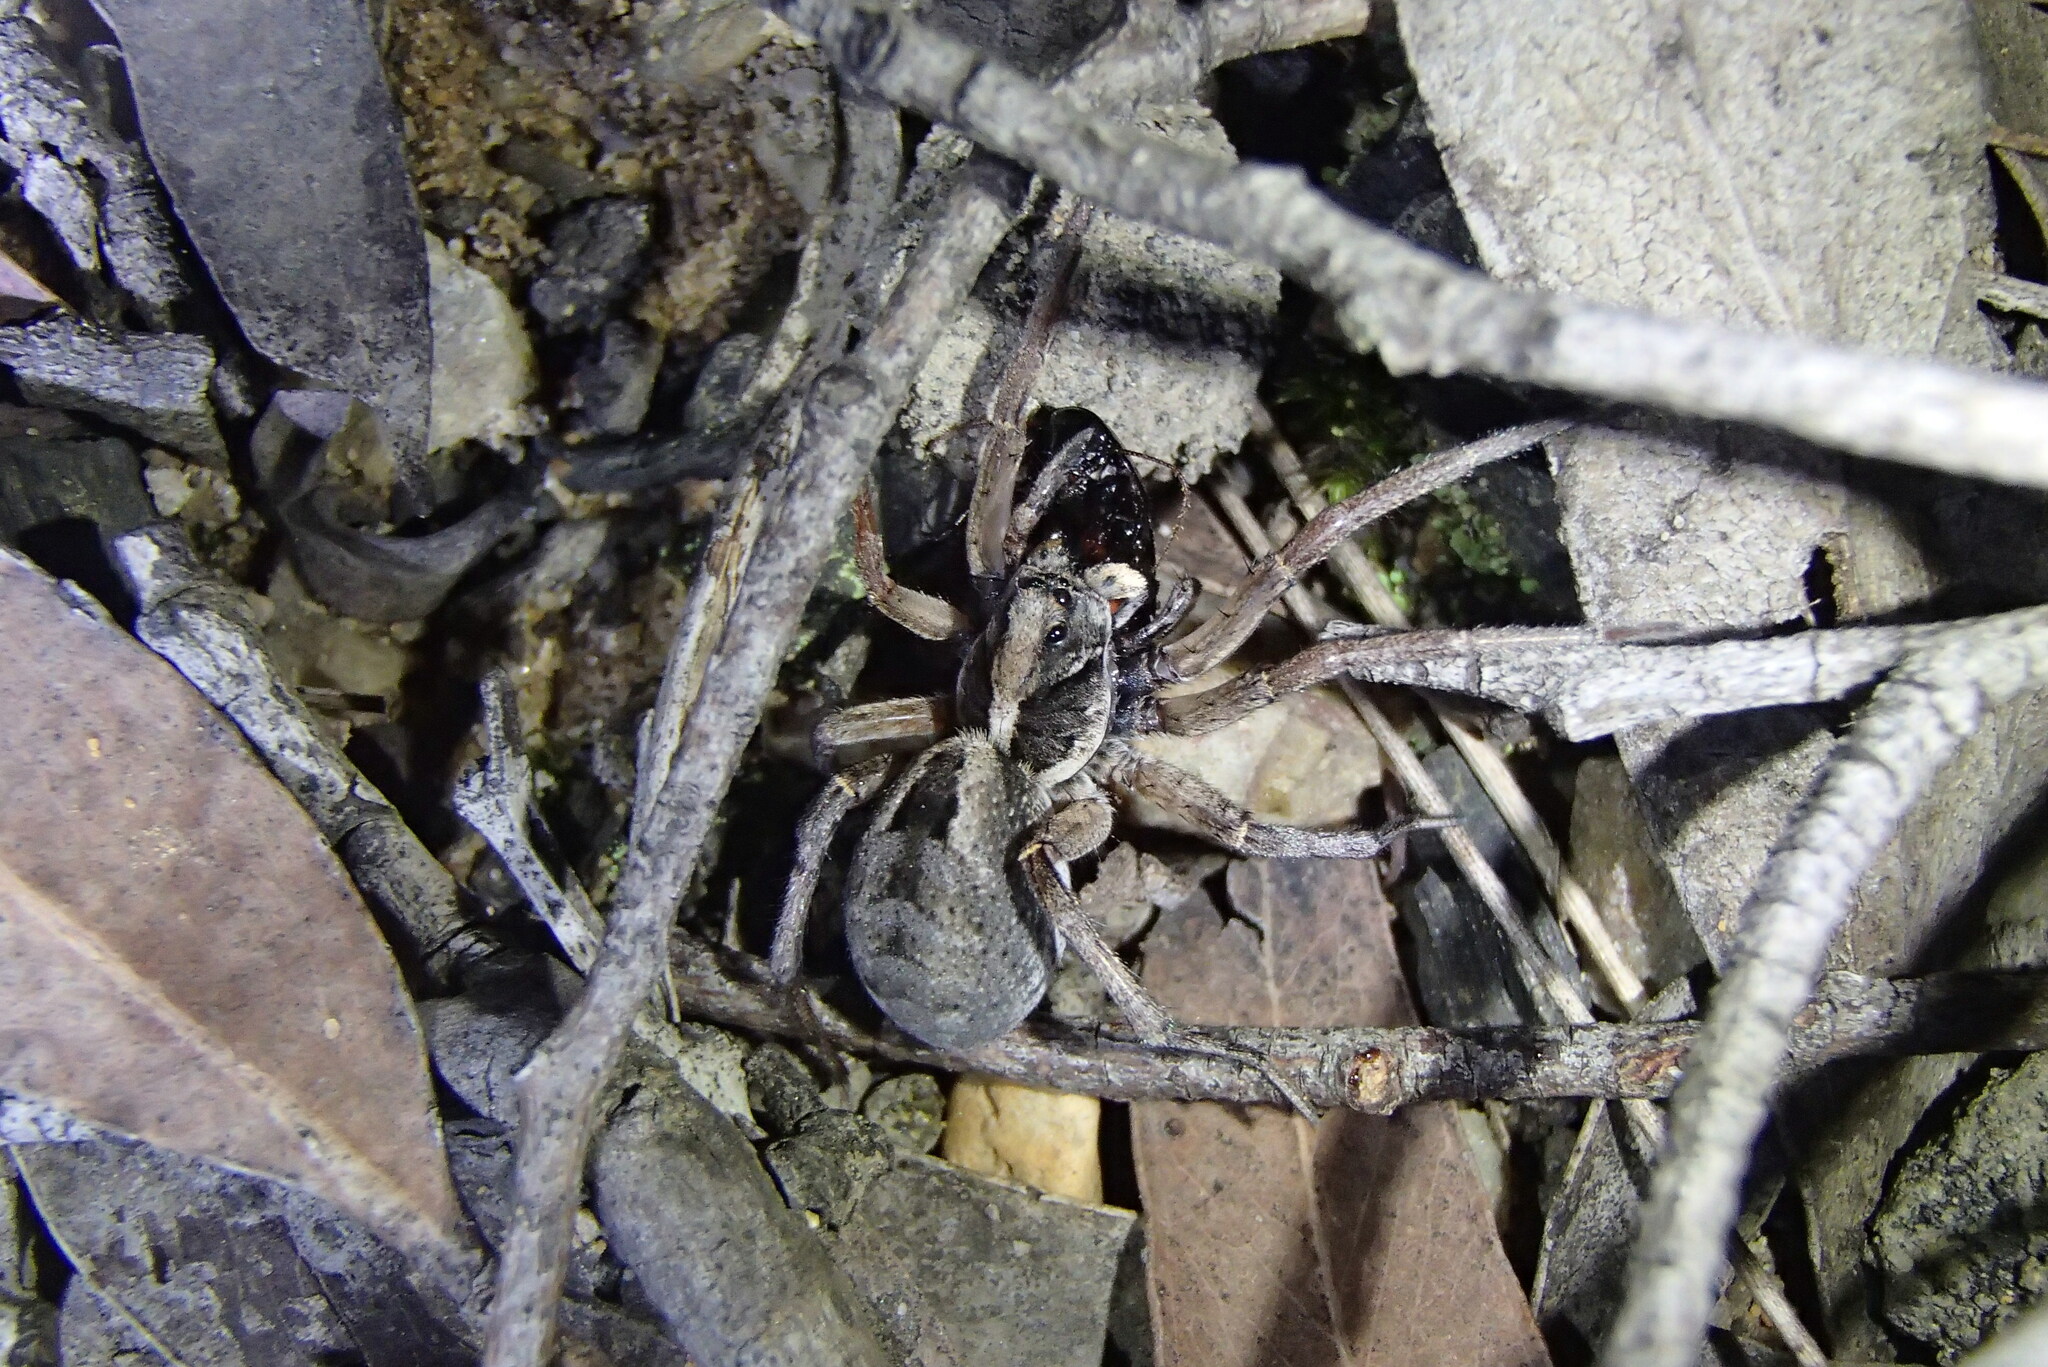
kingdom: Animalia
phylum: Arthropoda
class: Arachnida
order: Araneae
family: Lycosidae
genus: Venator
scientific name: Venator spenceri
